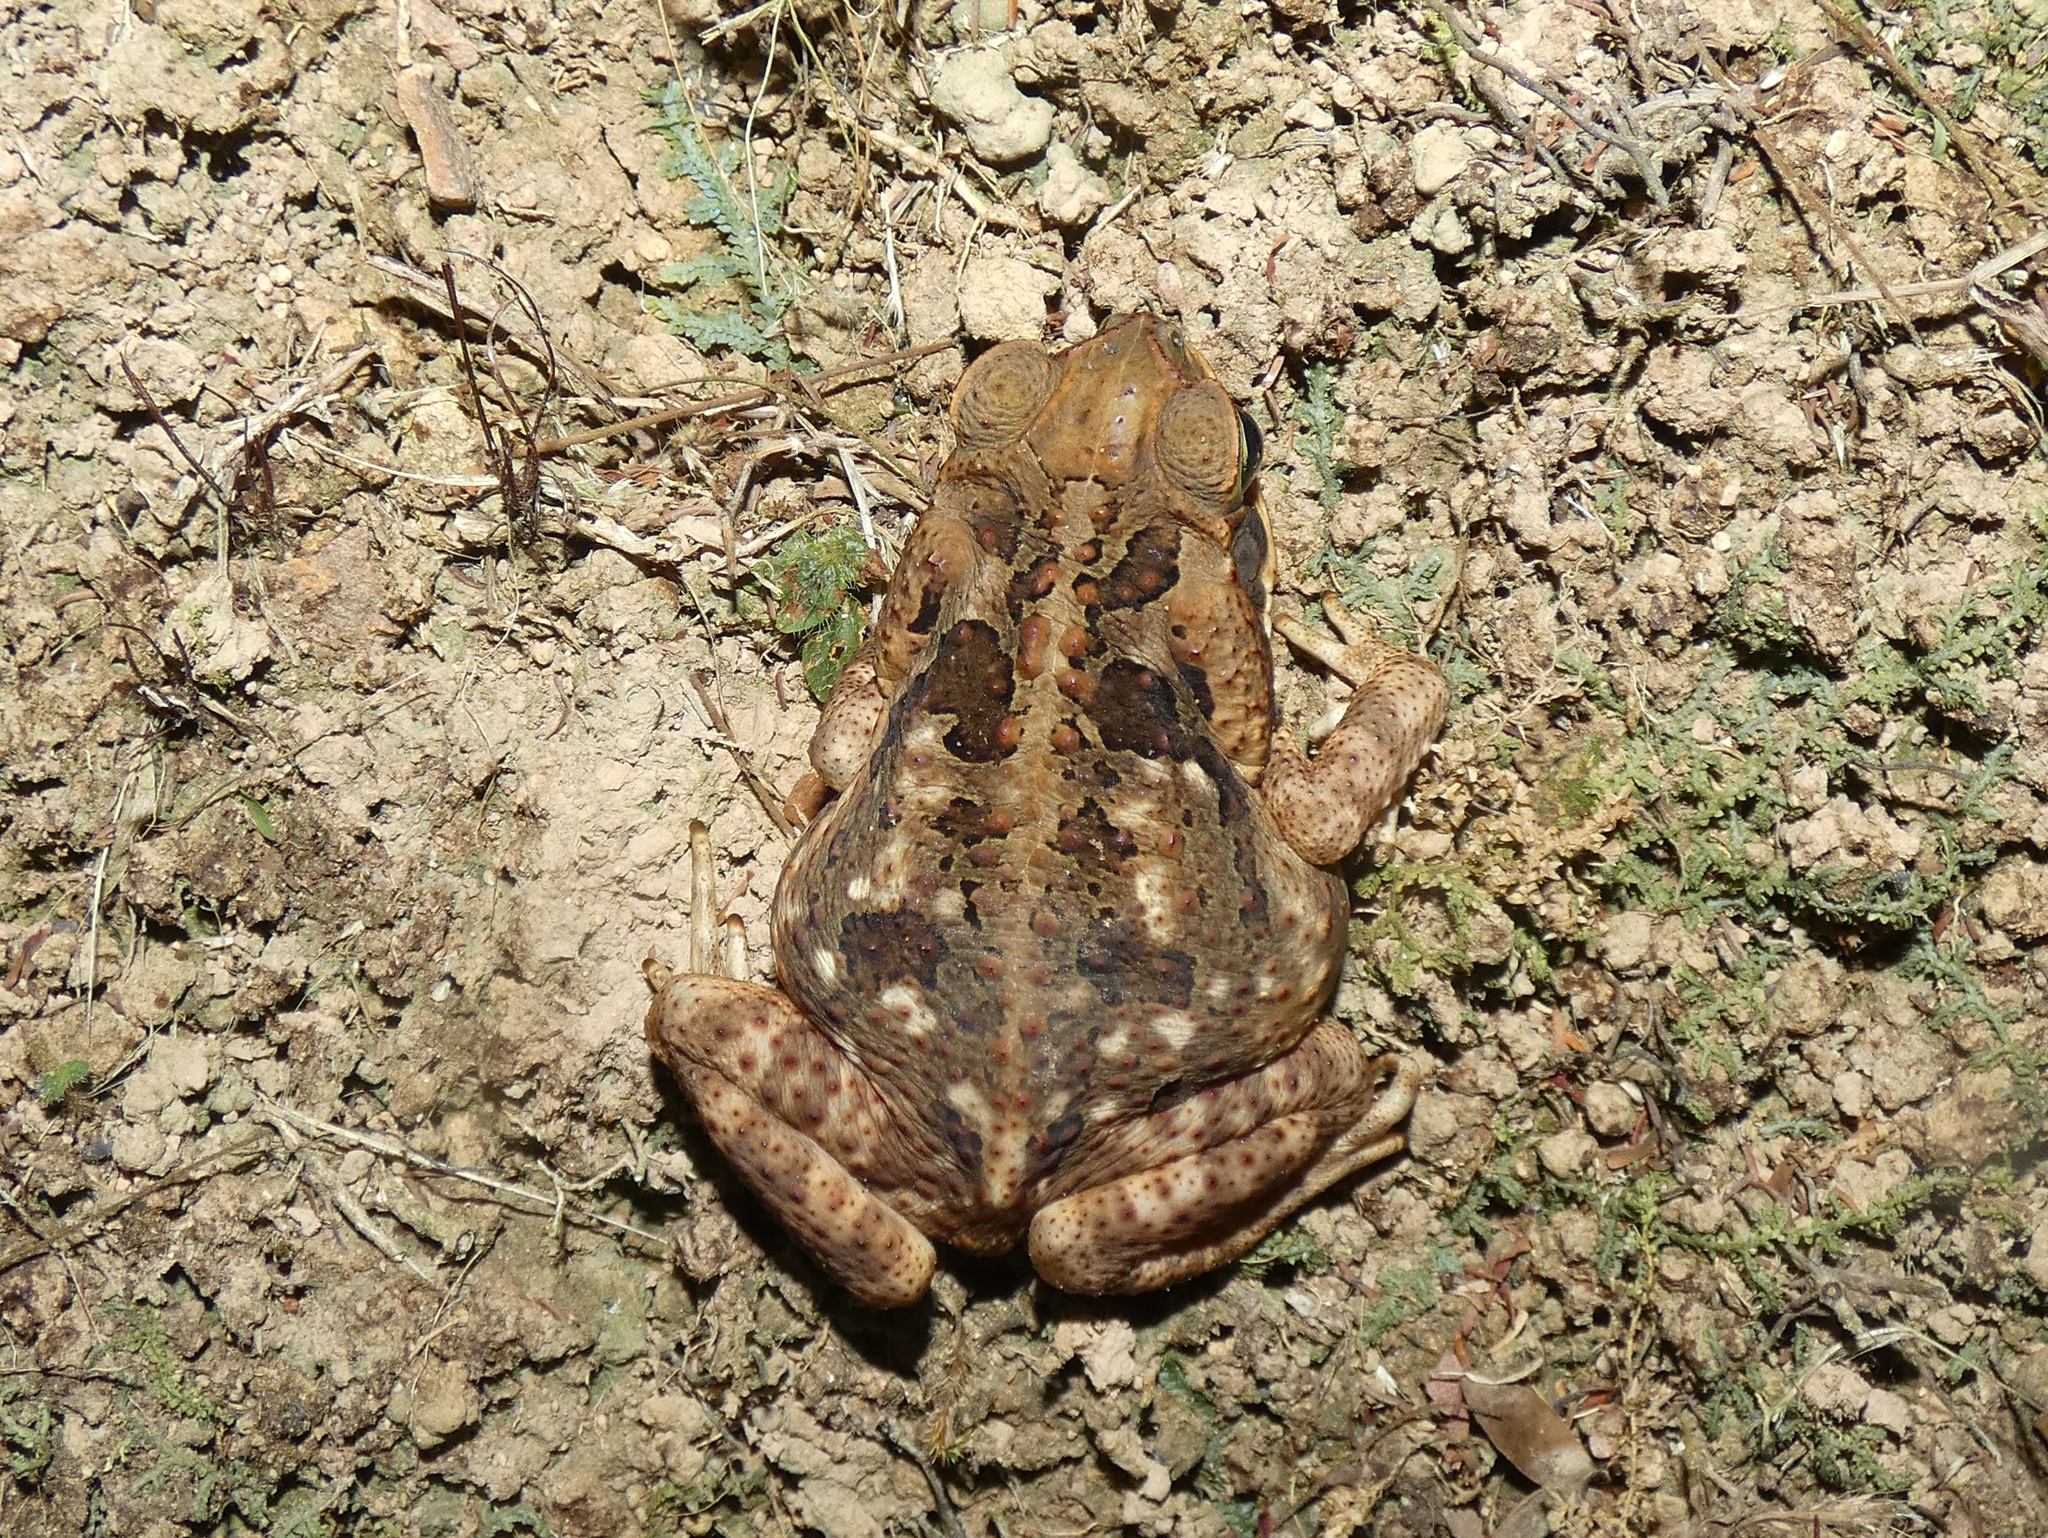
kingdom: Animalia
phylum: Chordata
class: Amphibia
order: Anura
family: Bufonidae
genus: Rhinella
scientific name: Rhinella horribilis
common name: Mesoamerican cane toad
